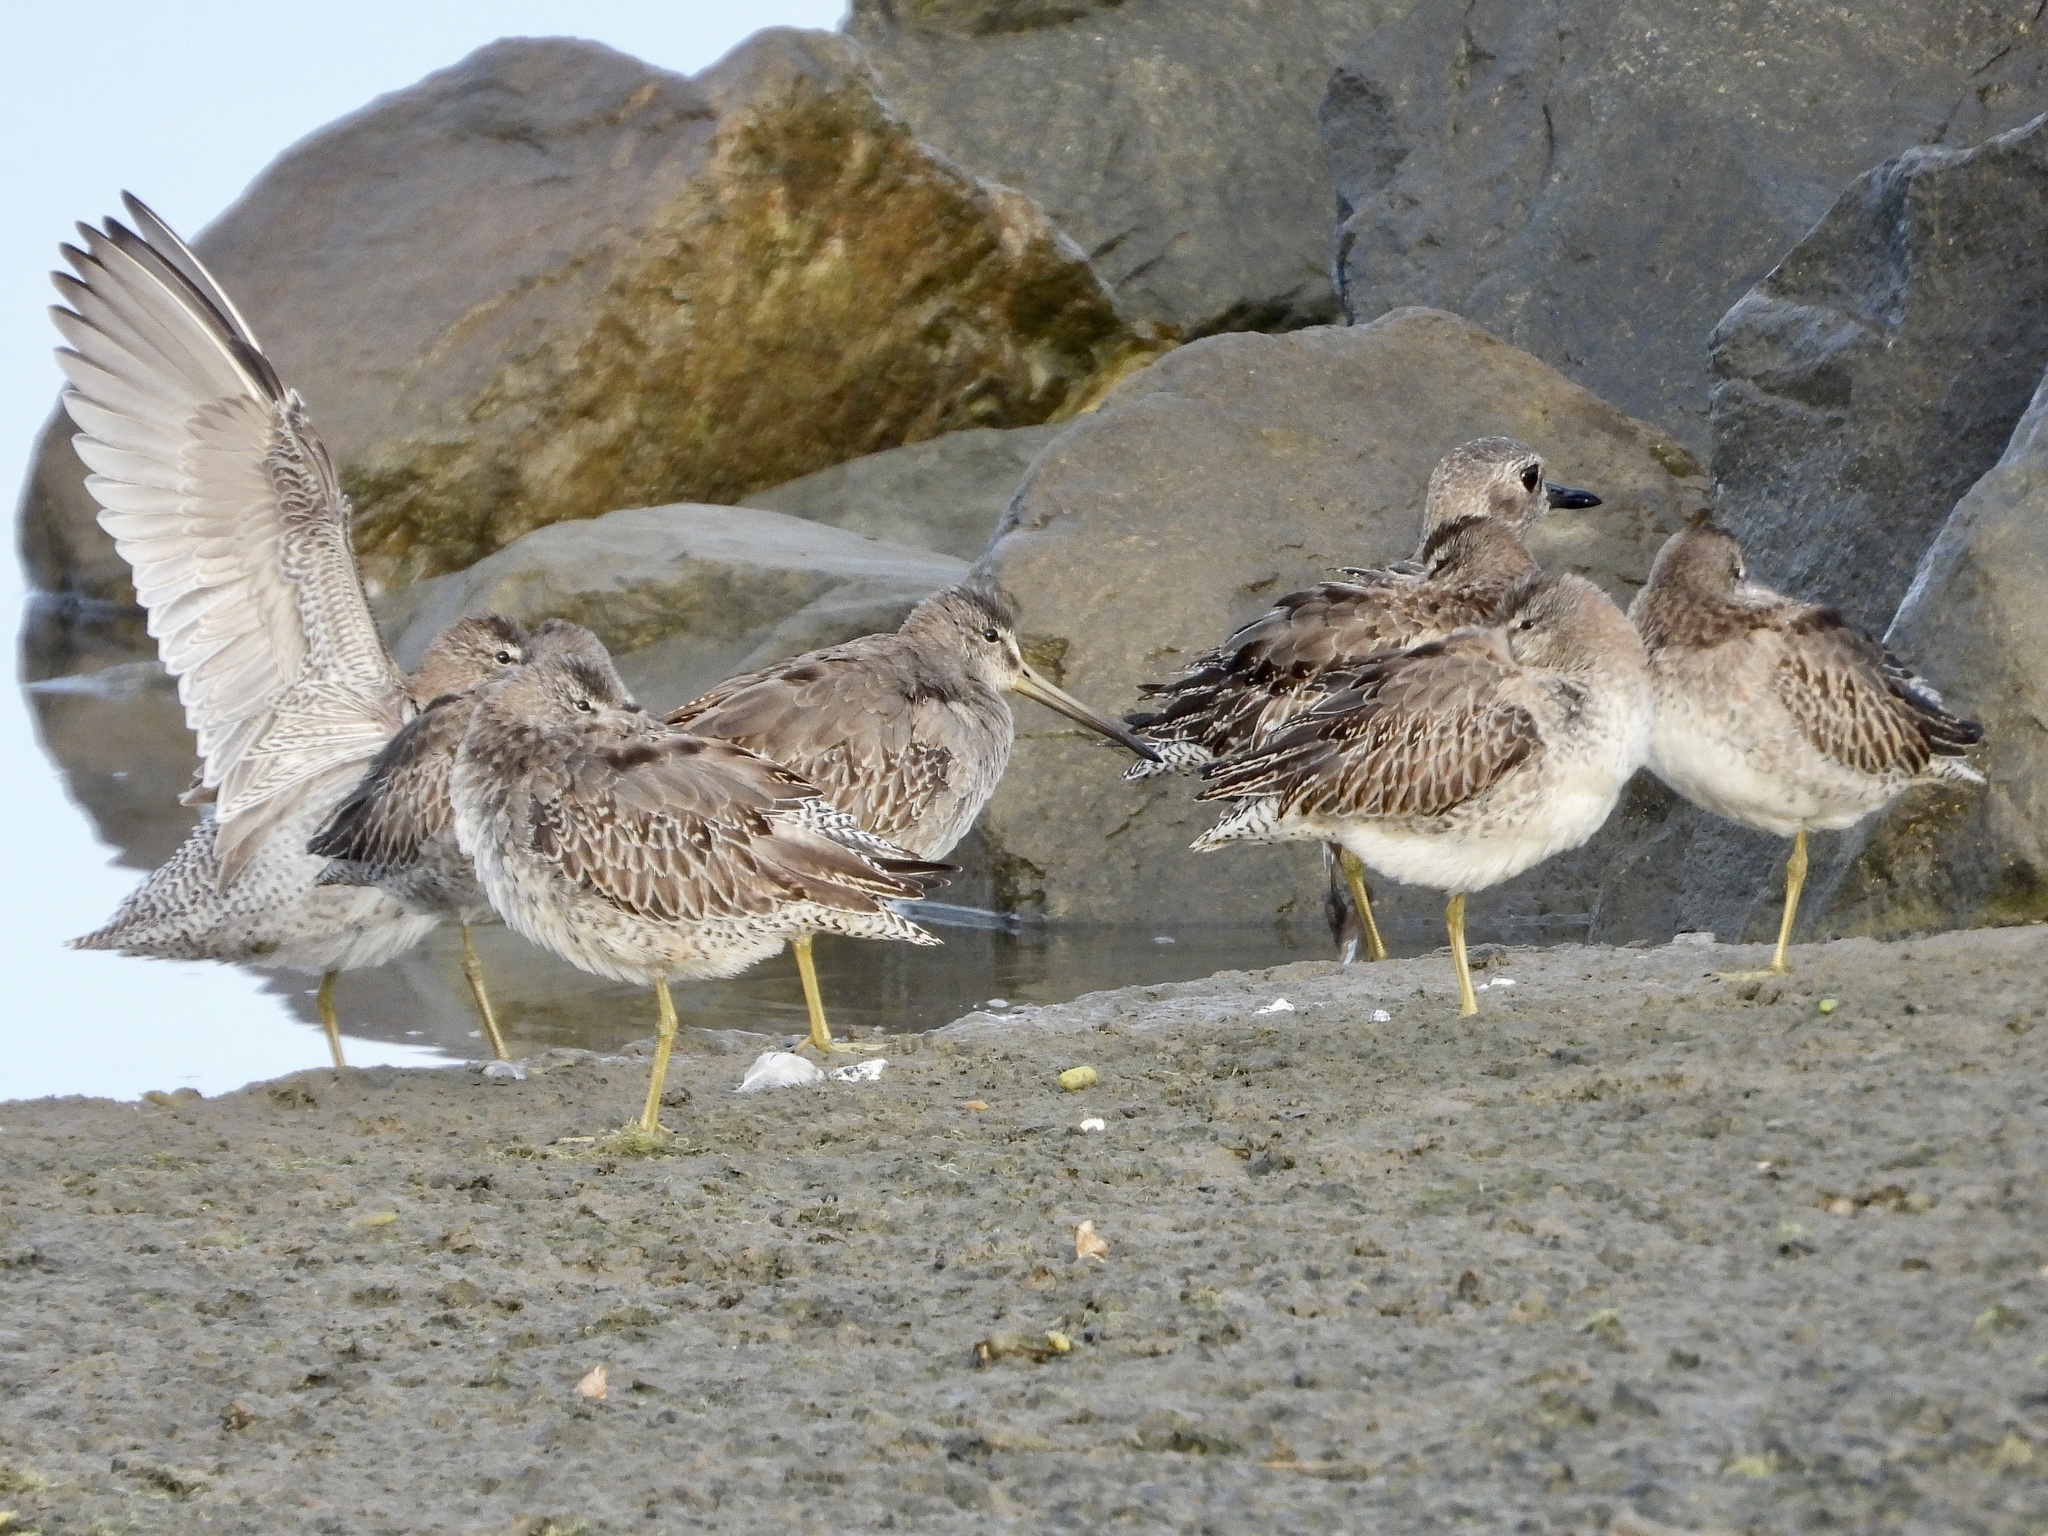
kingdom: Animalia
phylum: Chordata
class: Aves
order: Charadriiformes
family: Scolopacidae
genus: Limnodromus
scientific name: Limnodromus griseus
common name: Short-billed dowitcher
